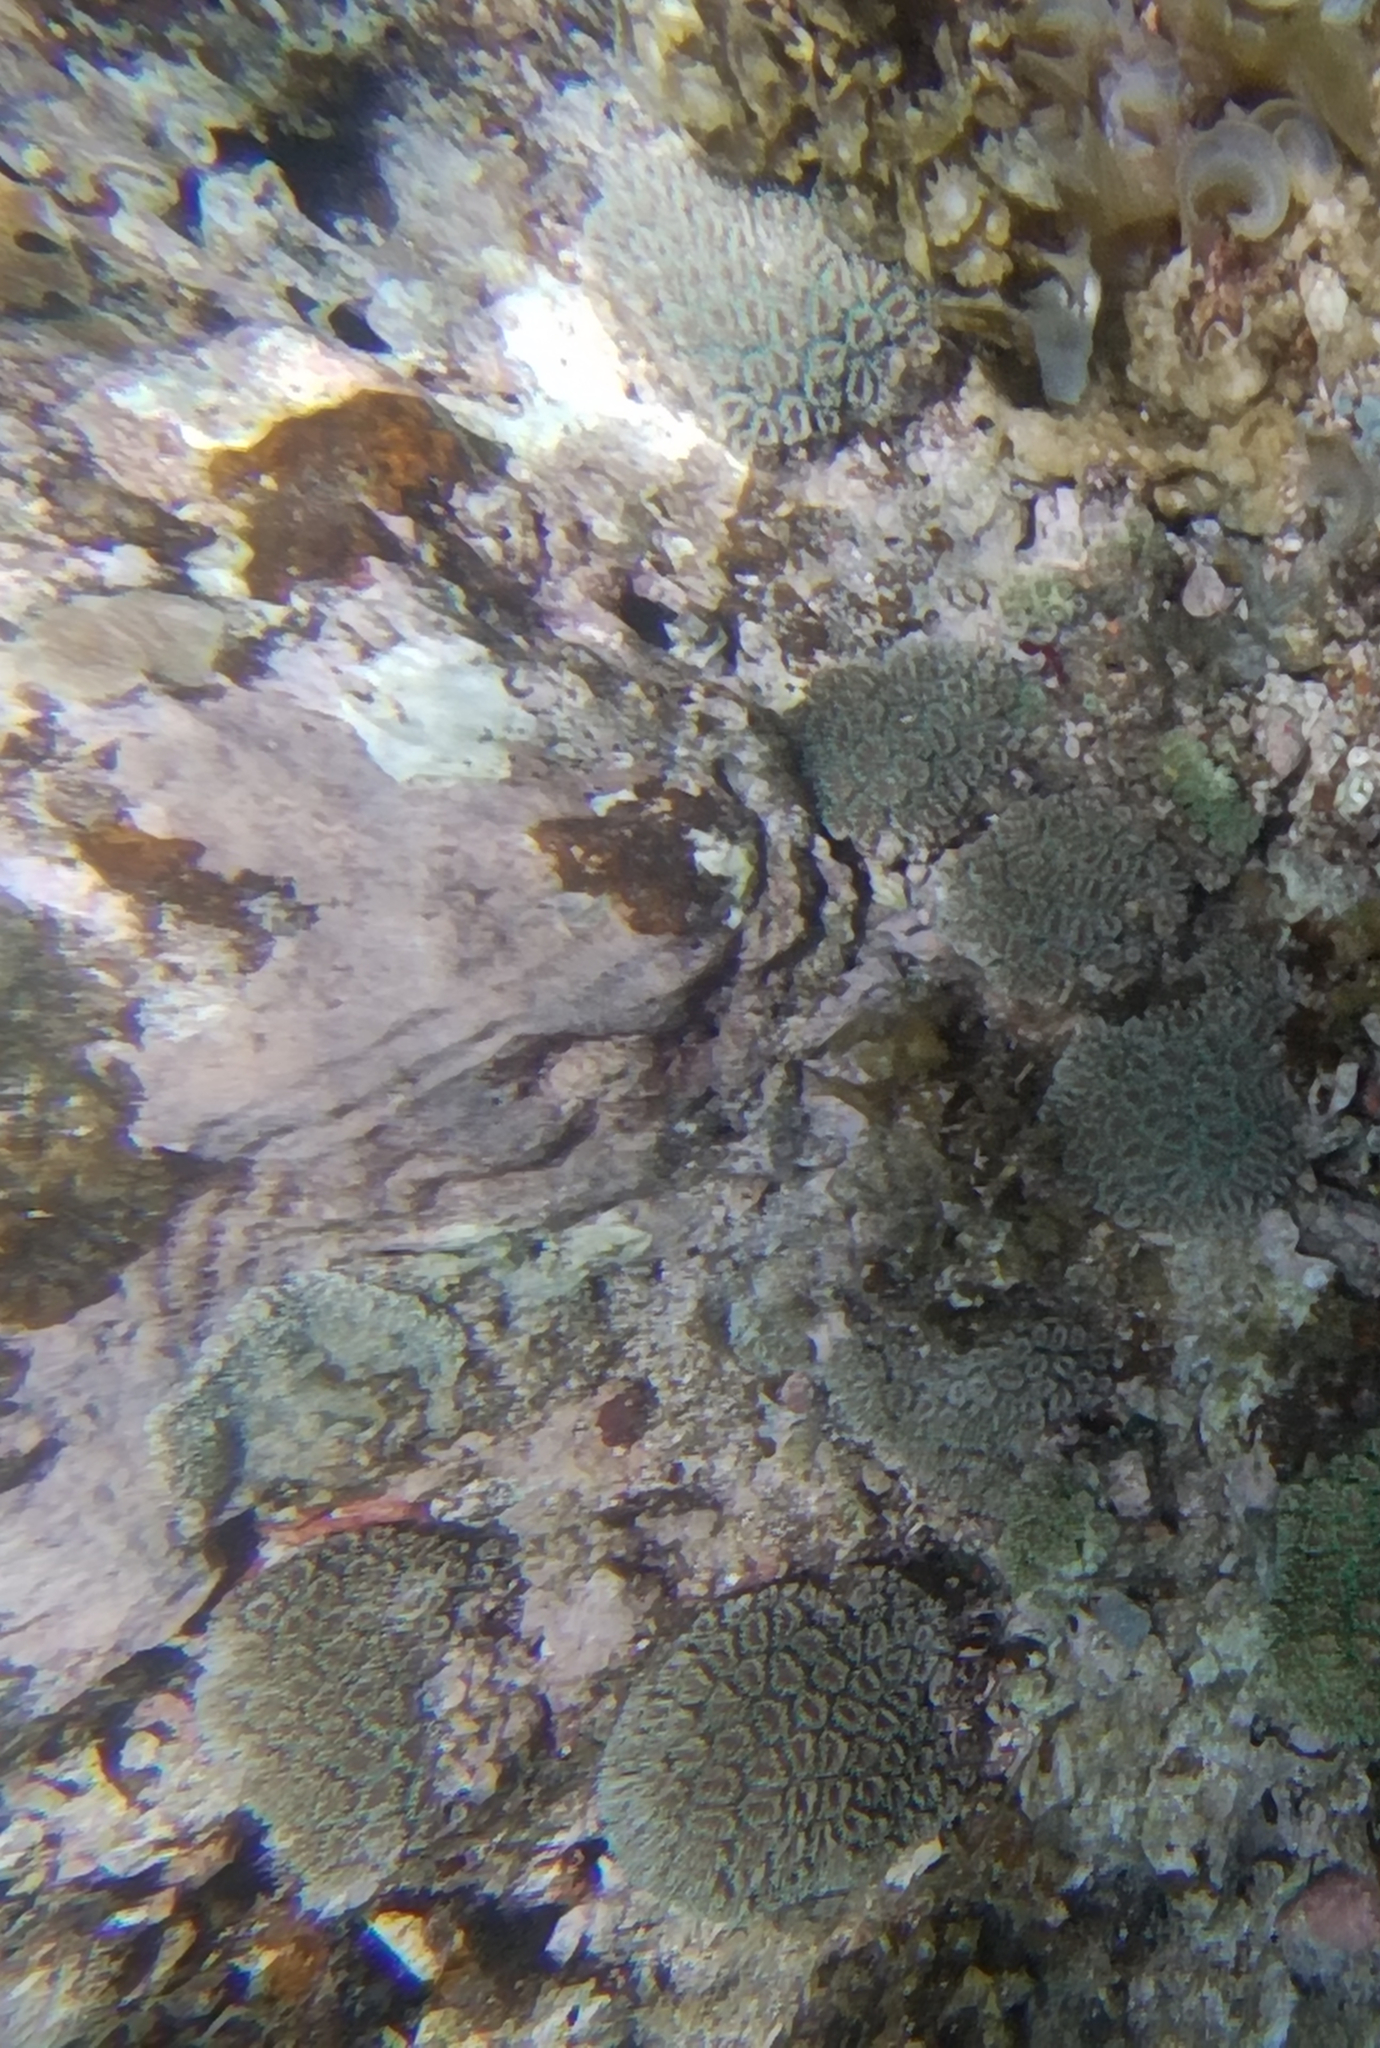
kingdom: Animalia
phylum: Cnidaria
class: Anthozoa
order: Scleractinia
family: Euphylliidae
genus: Galaxea
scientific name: Galaxea fascicularis
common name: Octopus coral
